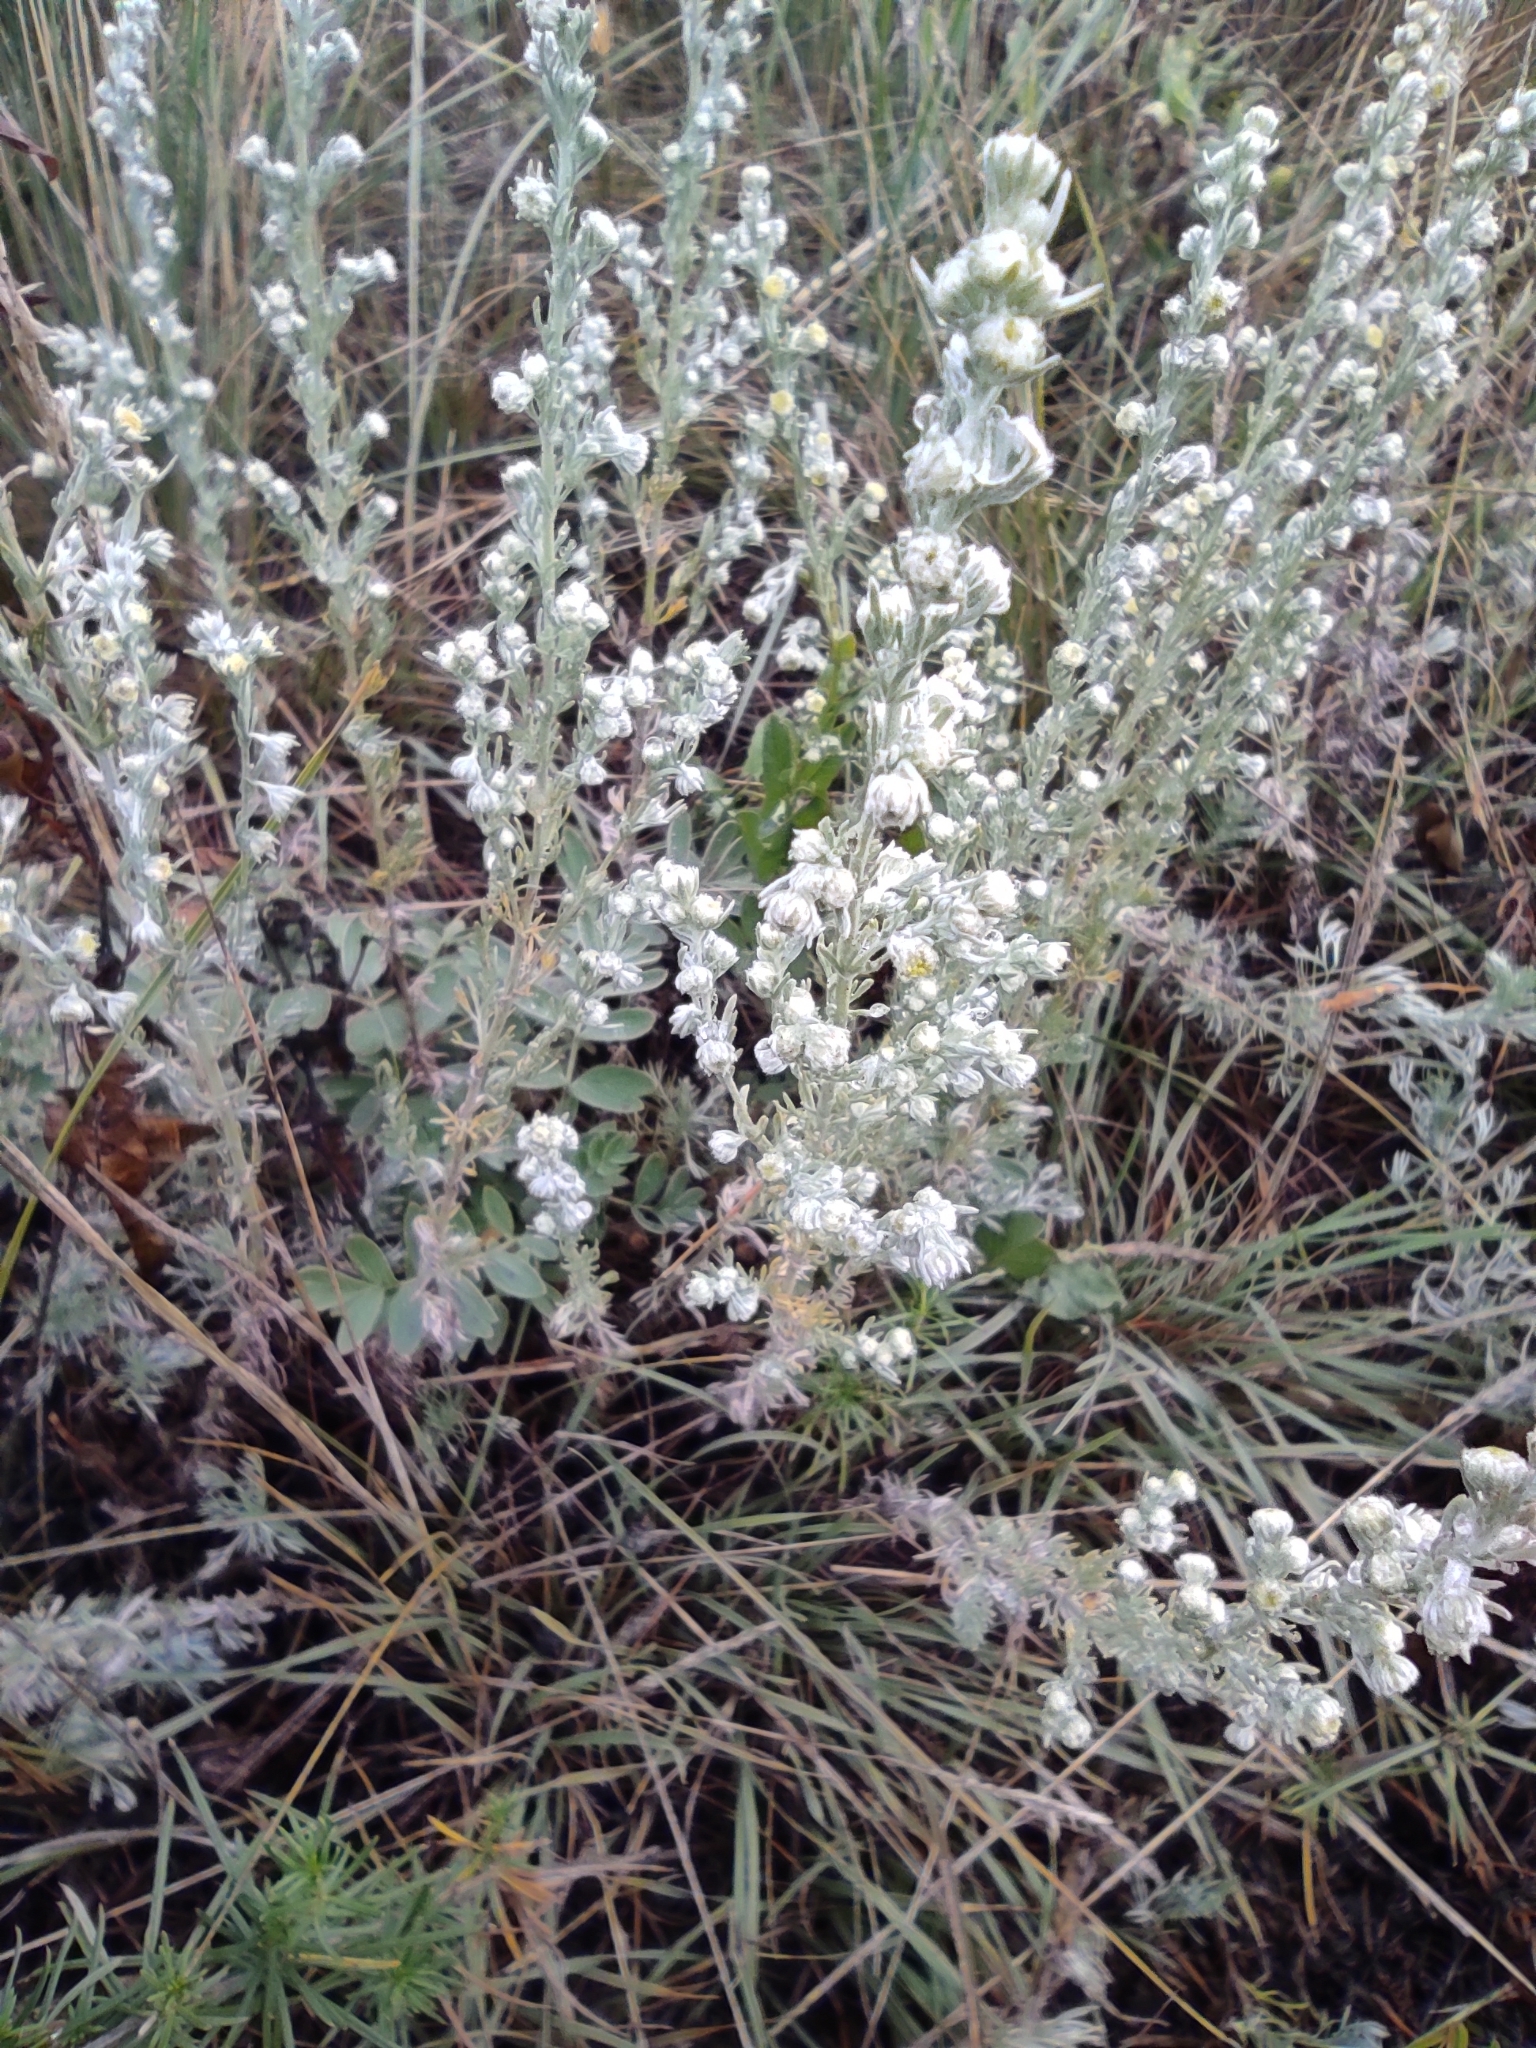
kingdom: Plantae
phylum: Tracheophyta
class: Magnoliopsida
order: Asterales
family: Asteraceae
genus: Artemisia
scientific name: Artemisia frigida
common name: Prairie sagewort
